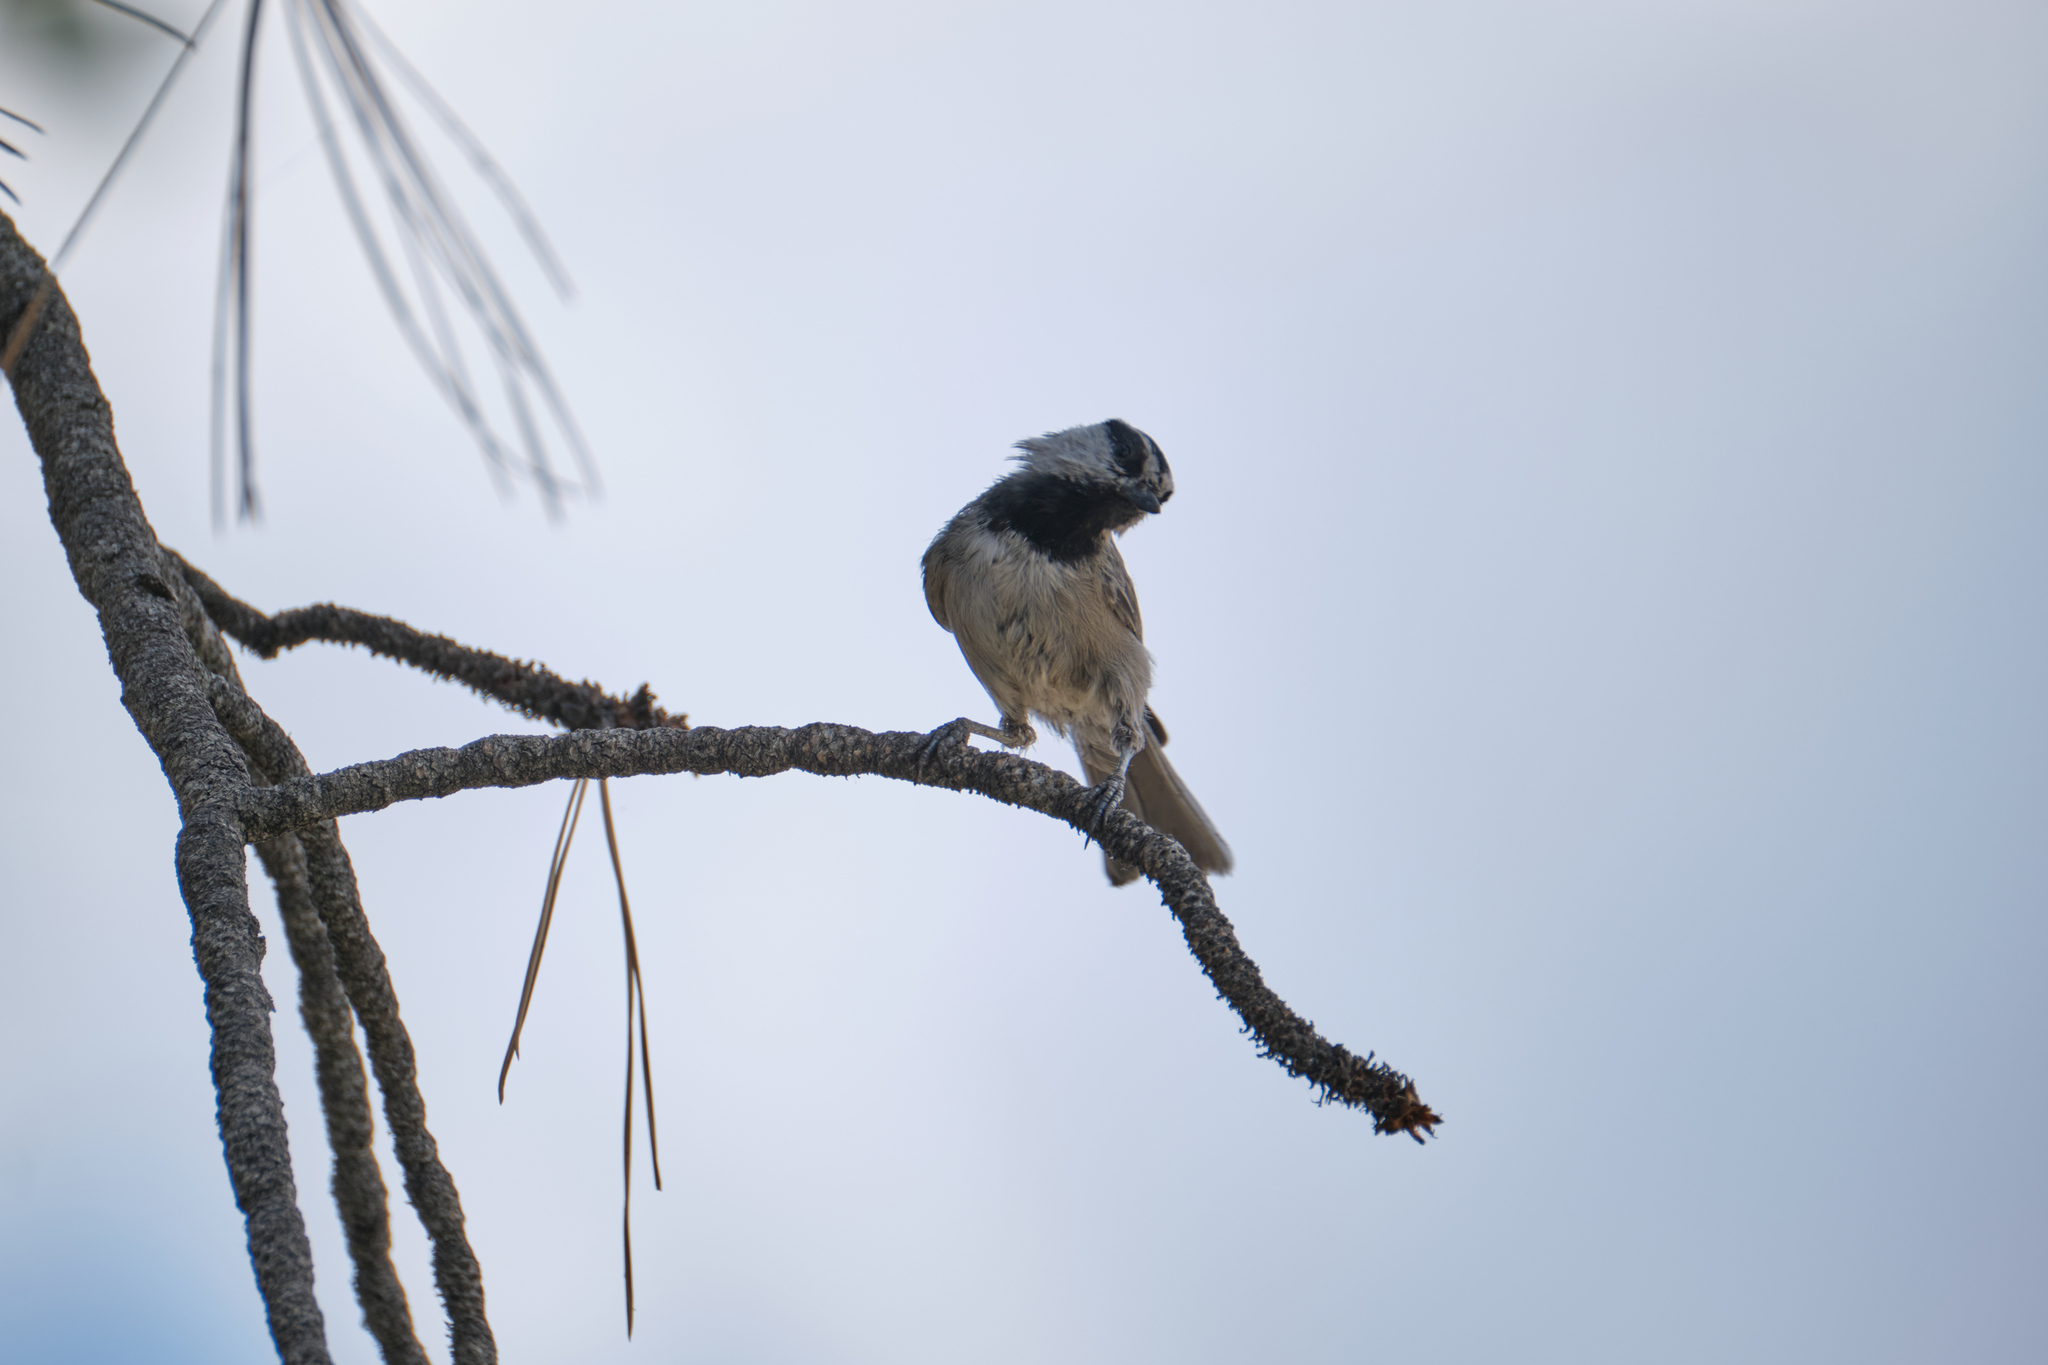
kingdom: Animalia
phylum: Chordata
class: Aves
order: Passeriformes
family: Paridae
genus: Poecile
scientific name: Poecile gambeli
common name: Mountain chickadee
